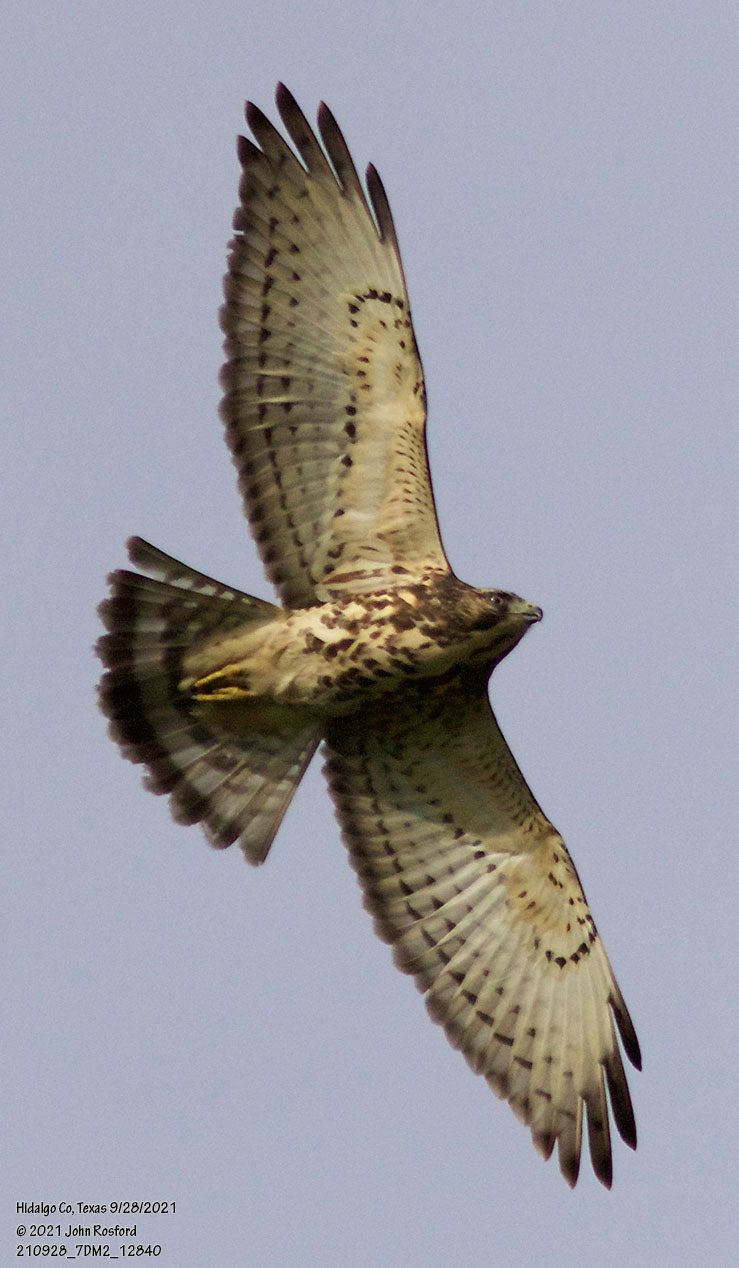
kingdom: Animalia
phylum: Chordata
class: Aves
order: Accipitriformes
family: Accipitridae
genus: Buteo
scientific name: Buteo platypterus
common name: Broad-winged hawk
